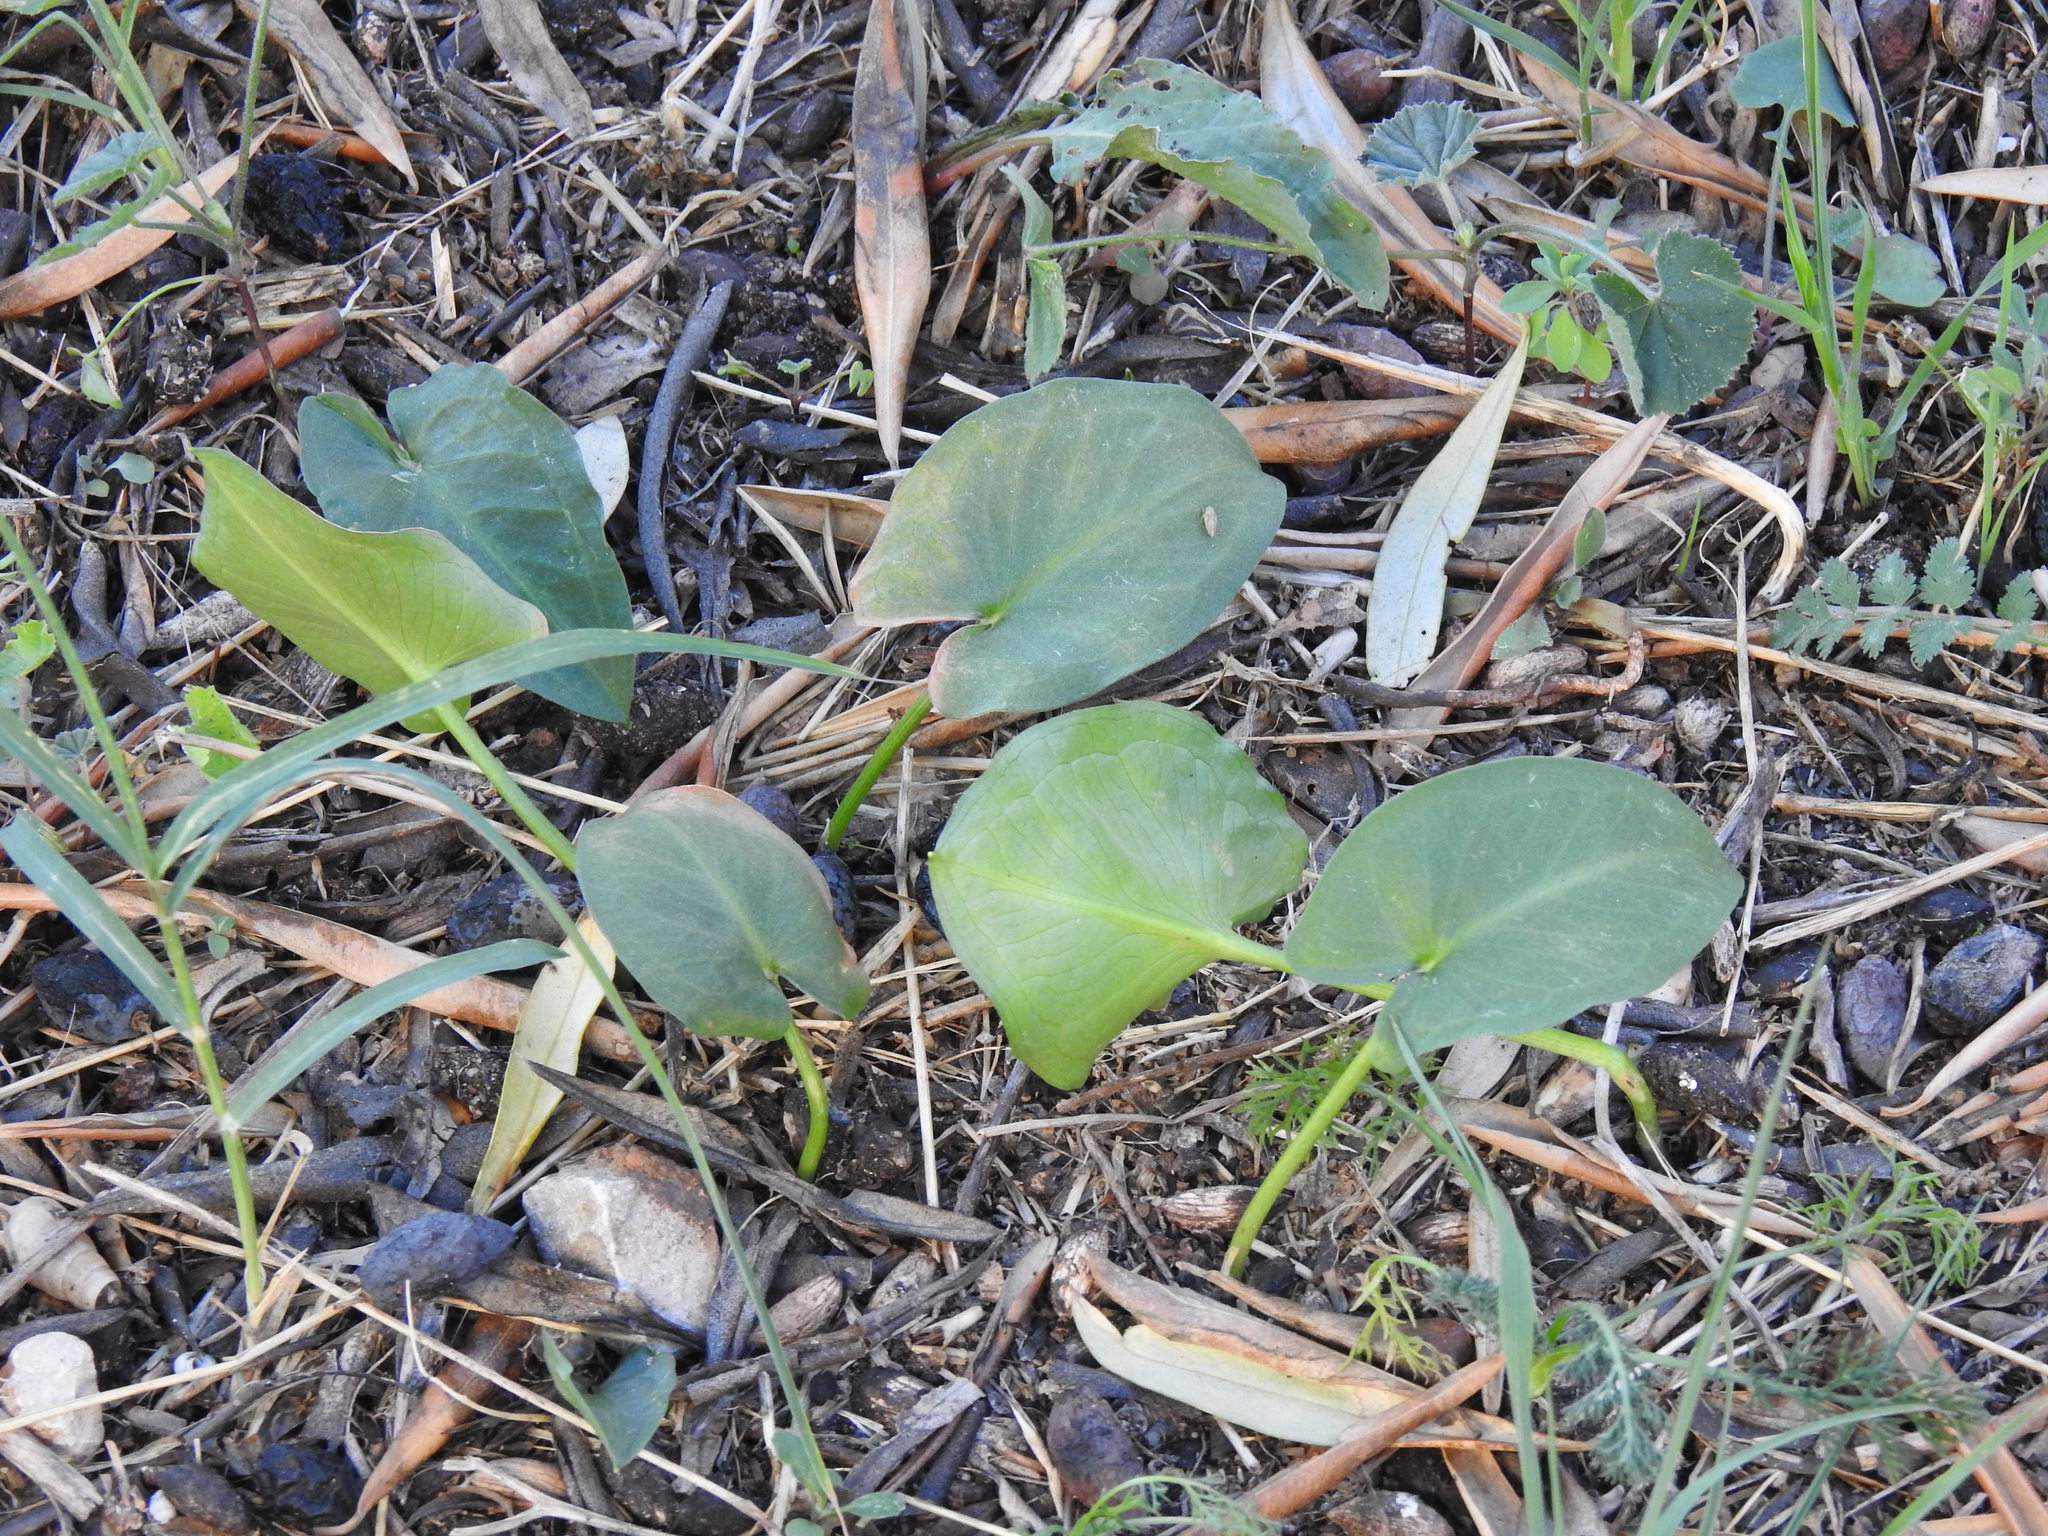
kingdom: Plantae
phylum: Tracheophyta
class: Liliopsida
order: Alismatales
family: Araceae
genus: Arisarum
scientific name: Arisarum simorrhinum
